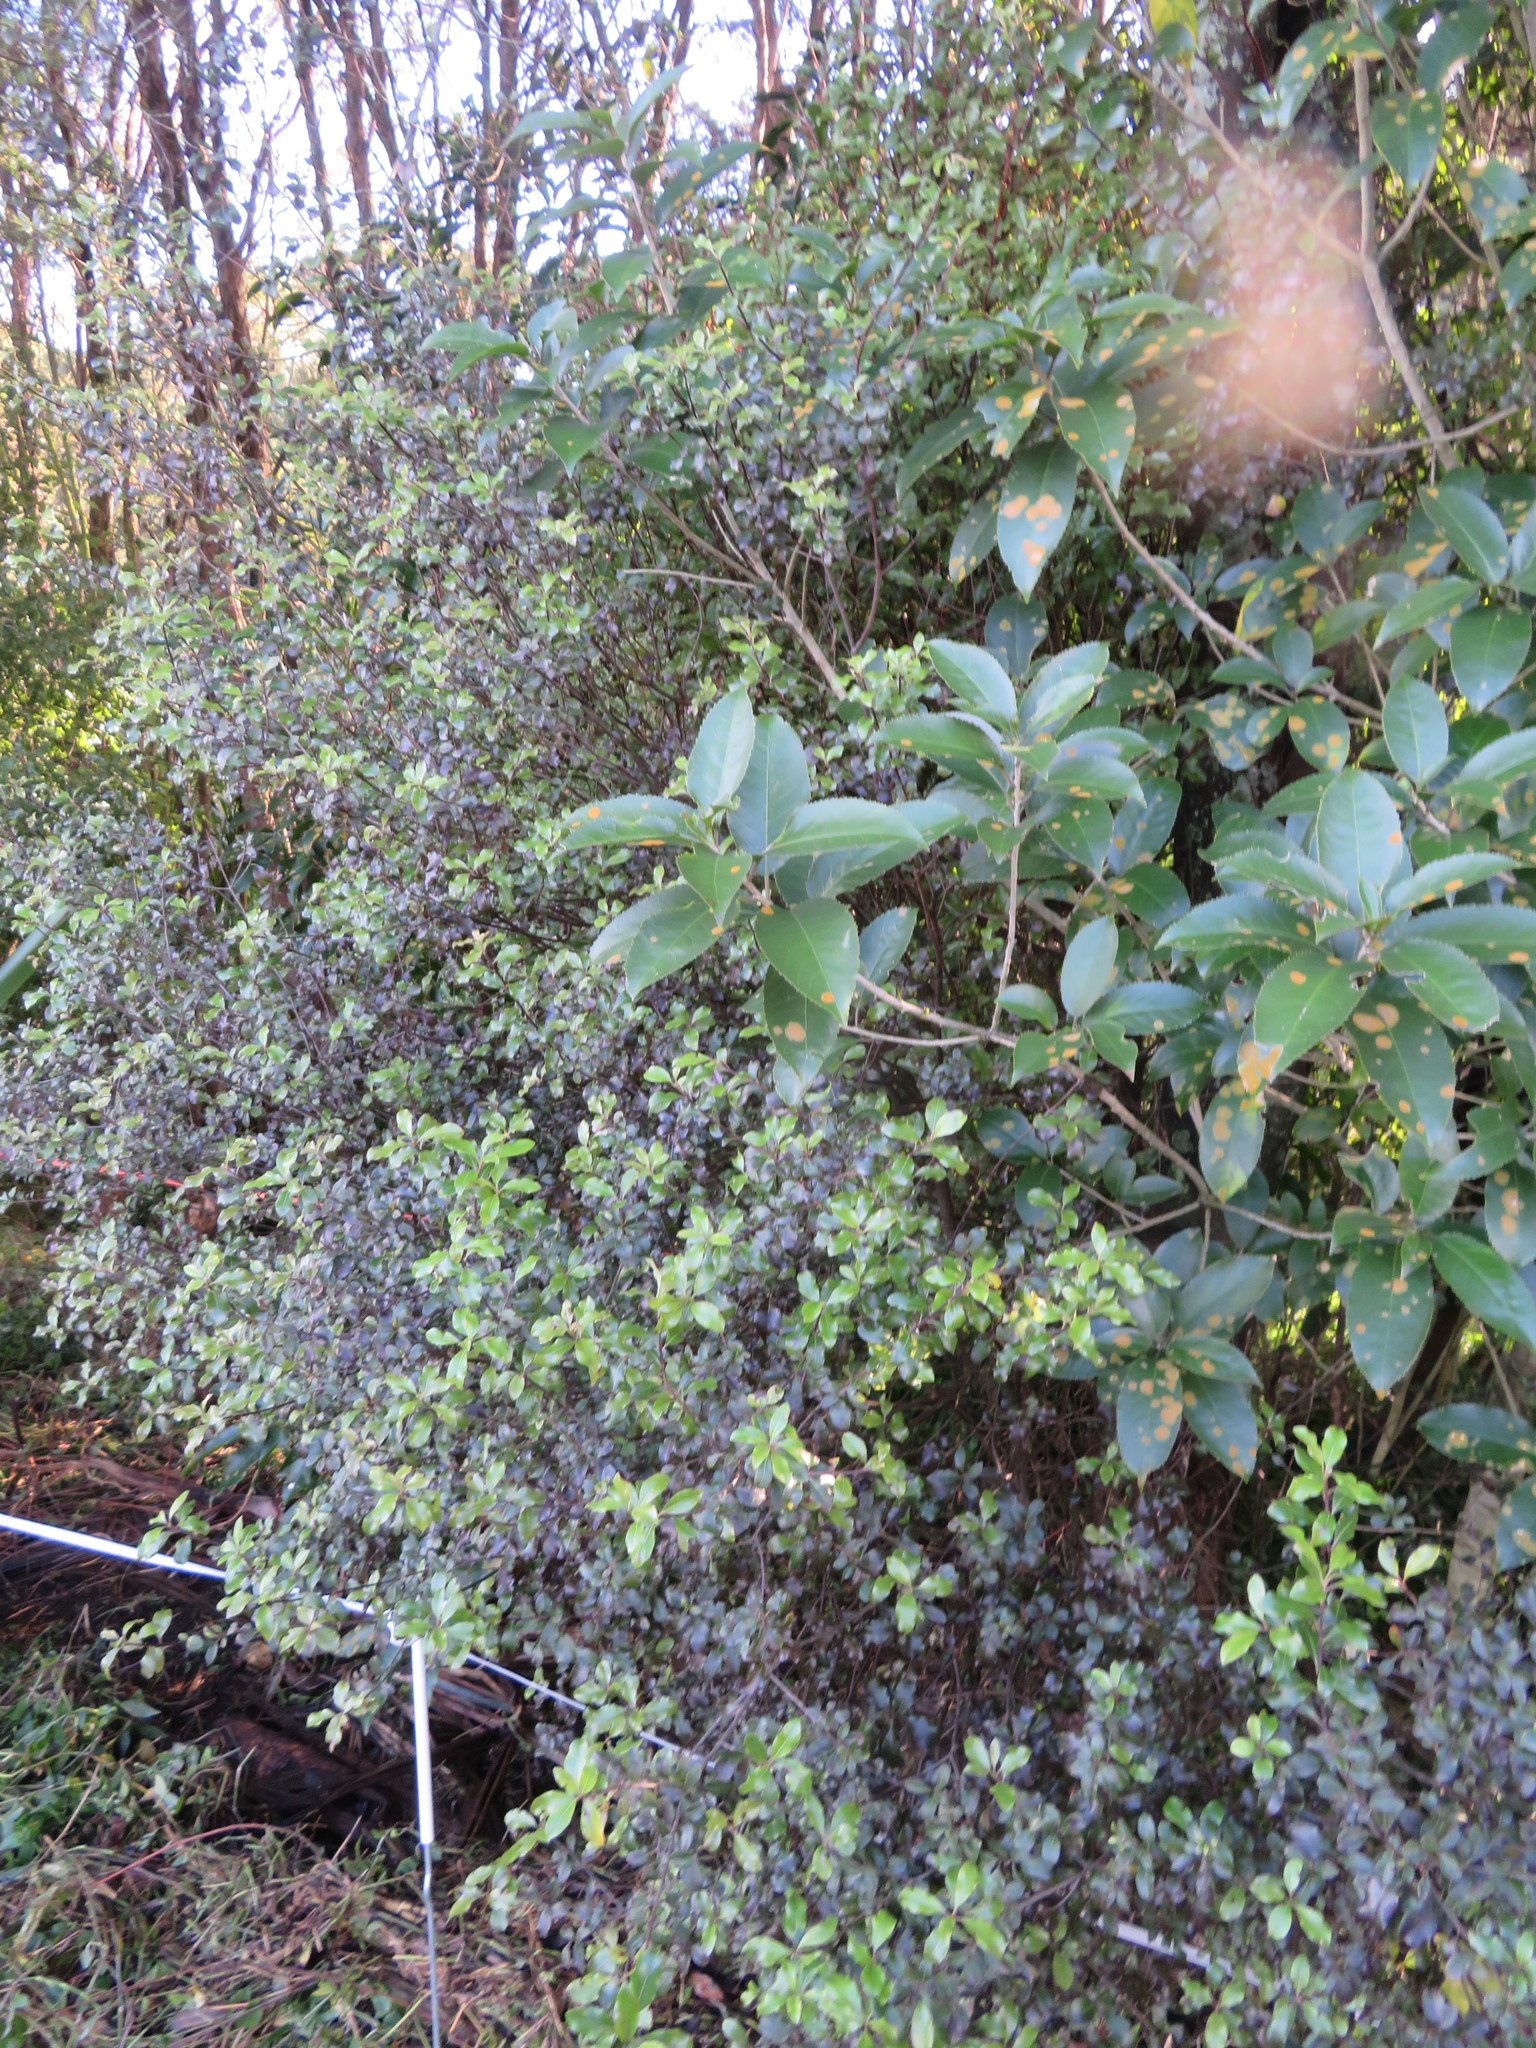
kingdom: Plantae
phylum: Tracheophyta
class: Magnoliopsida
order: Apiales
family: Pittosporaceae
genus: Pittosporum
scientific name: Pittosporum tenuifolium
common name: Kohuhu
